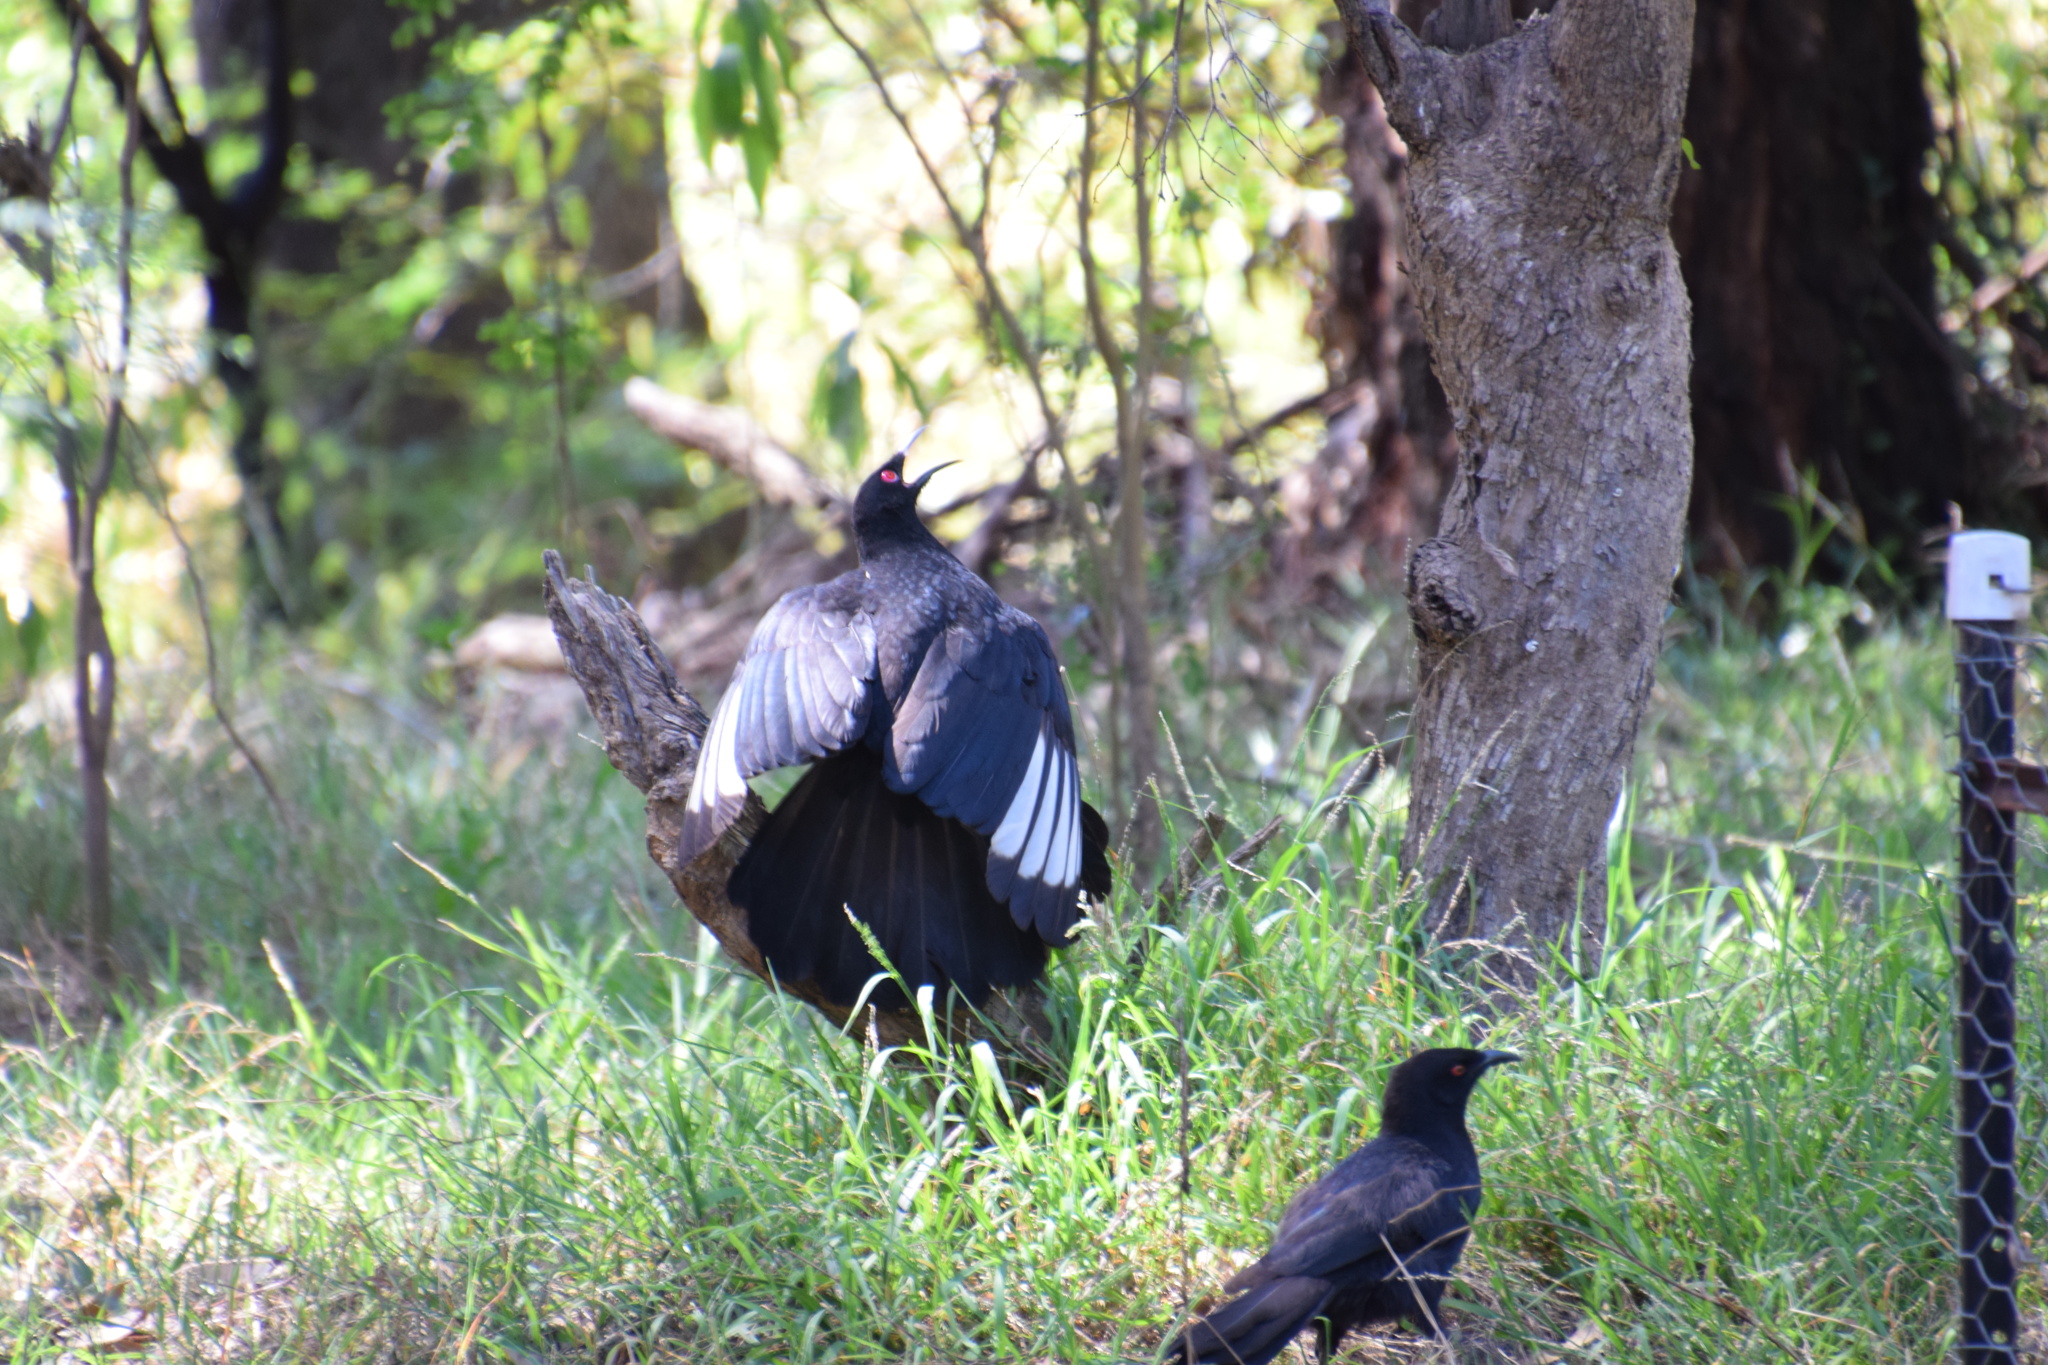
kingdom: Animalia
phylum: Chordata
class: Aves
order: Passeriformes
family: Corcoracidae
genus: Corcorax
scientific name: Corcorax melanoramphos
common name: White-winged chough
